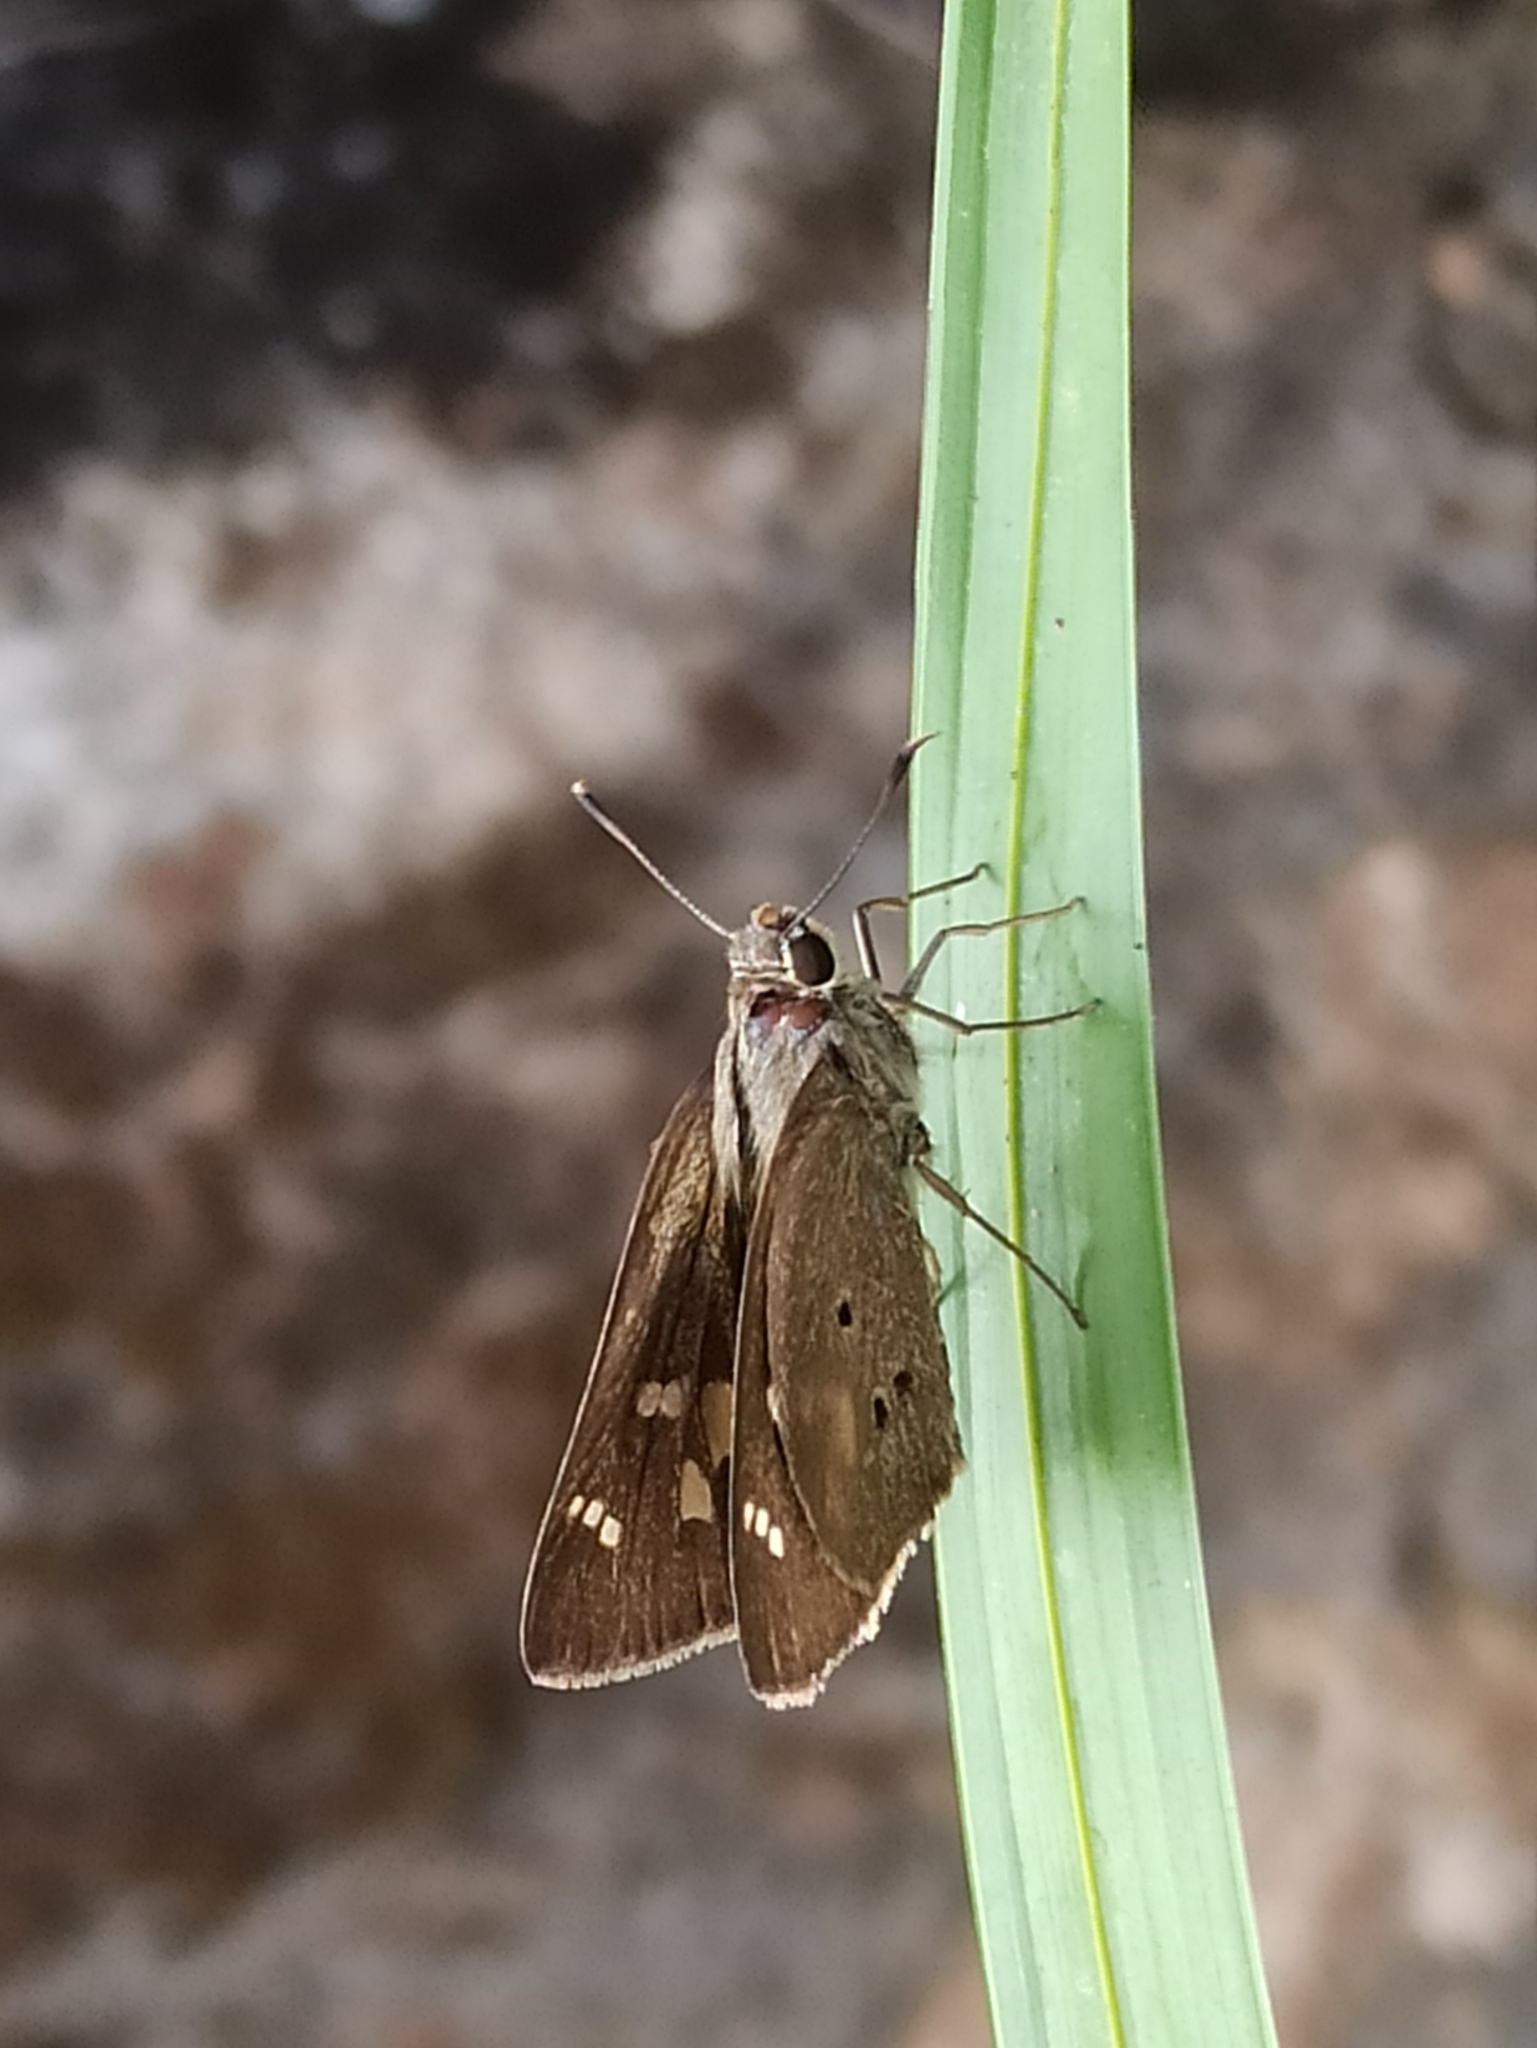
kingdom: Animalia
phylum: Arthropoda
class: Insecta
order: Lepidoptera
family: Hesperiidae
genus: Suastus
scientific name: Suastus gremius
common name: Indian palm bob
